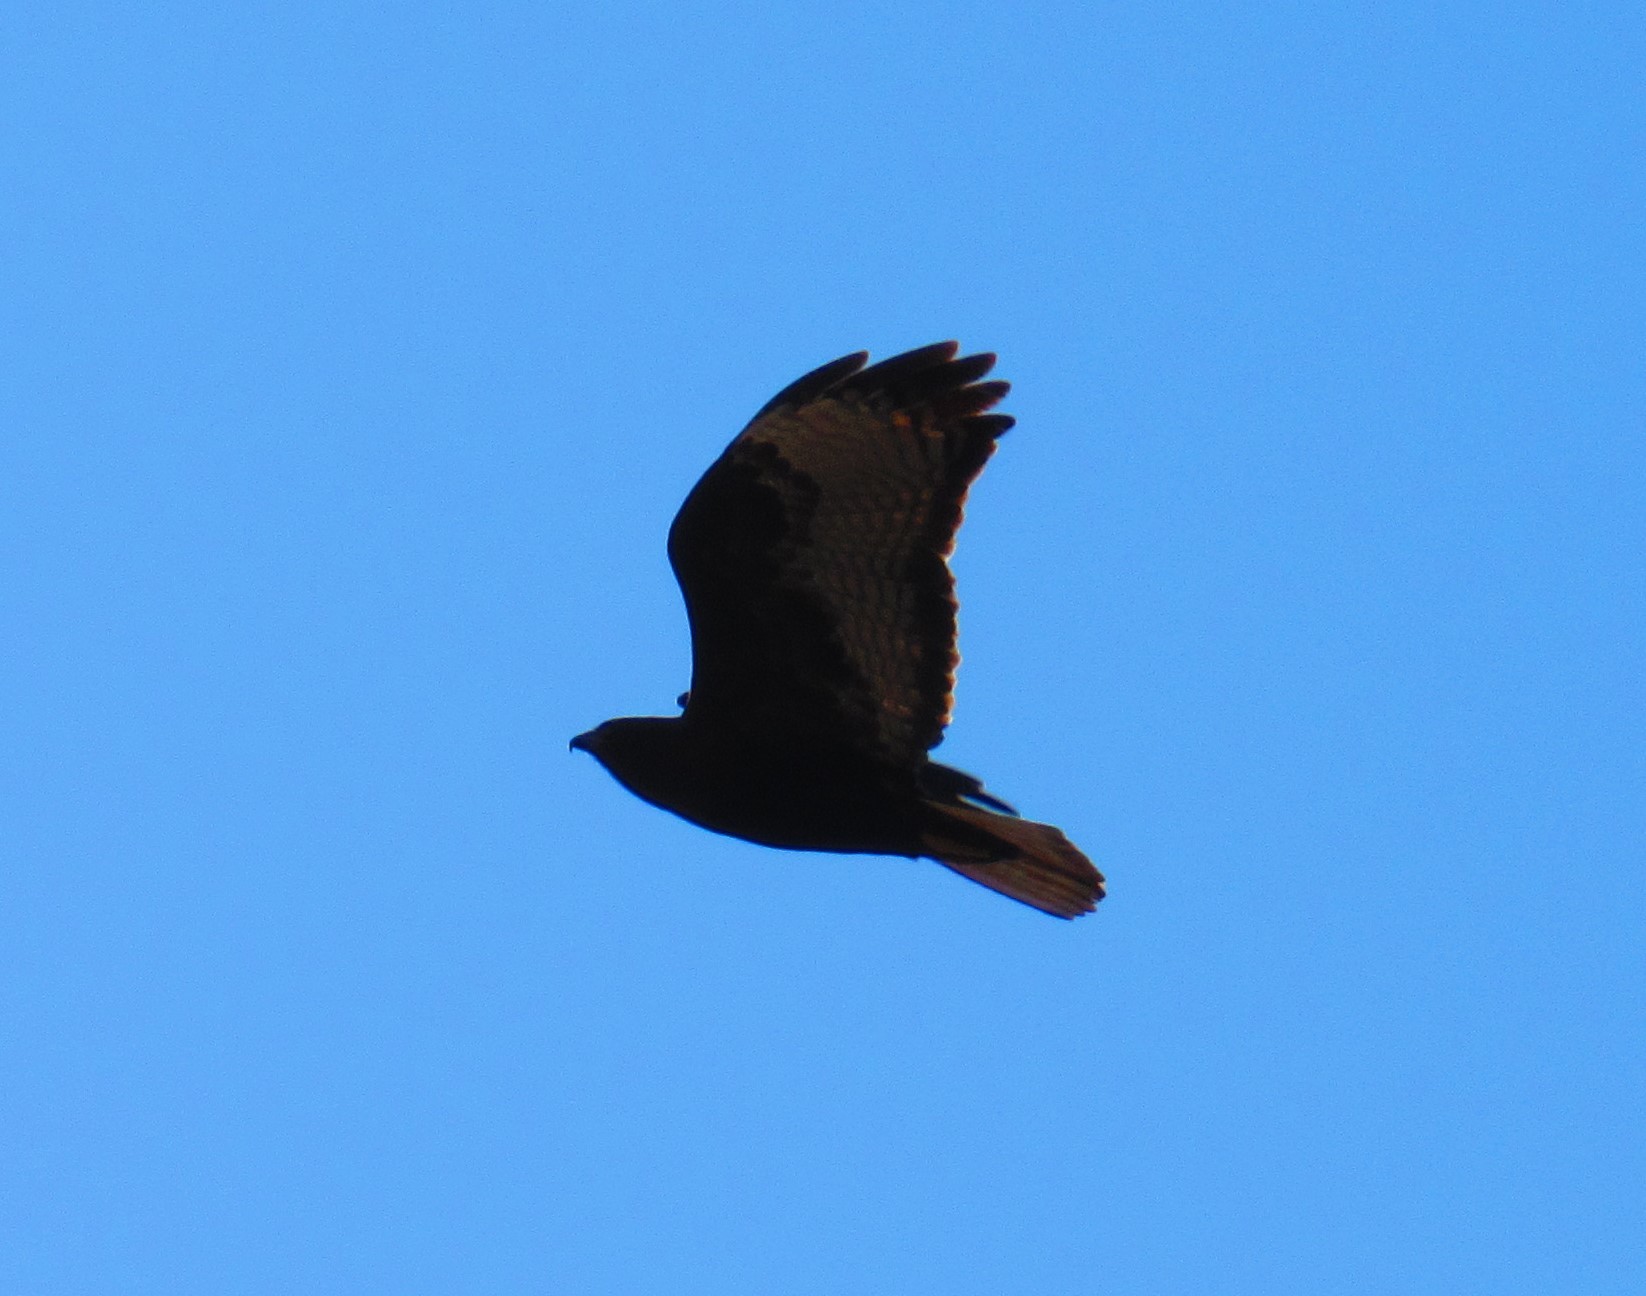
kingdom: Animalia
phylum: Chordata
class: Aves
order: Accipitriformes
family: Accipitridae
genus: Buteo
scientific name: Buteo jamaicensis
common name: Red-tailed hawk
